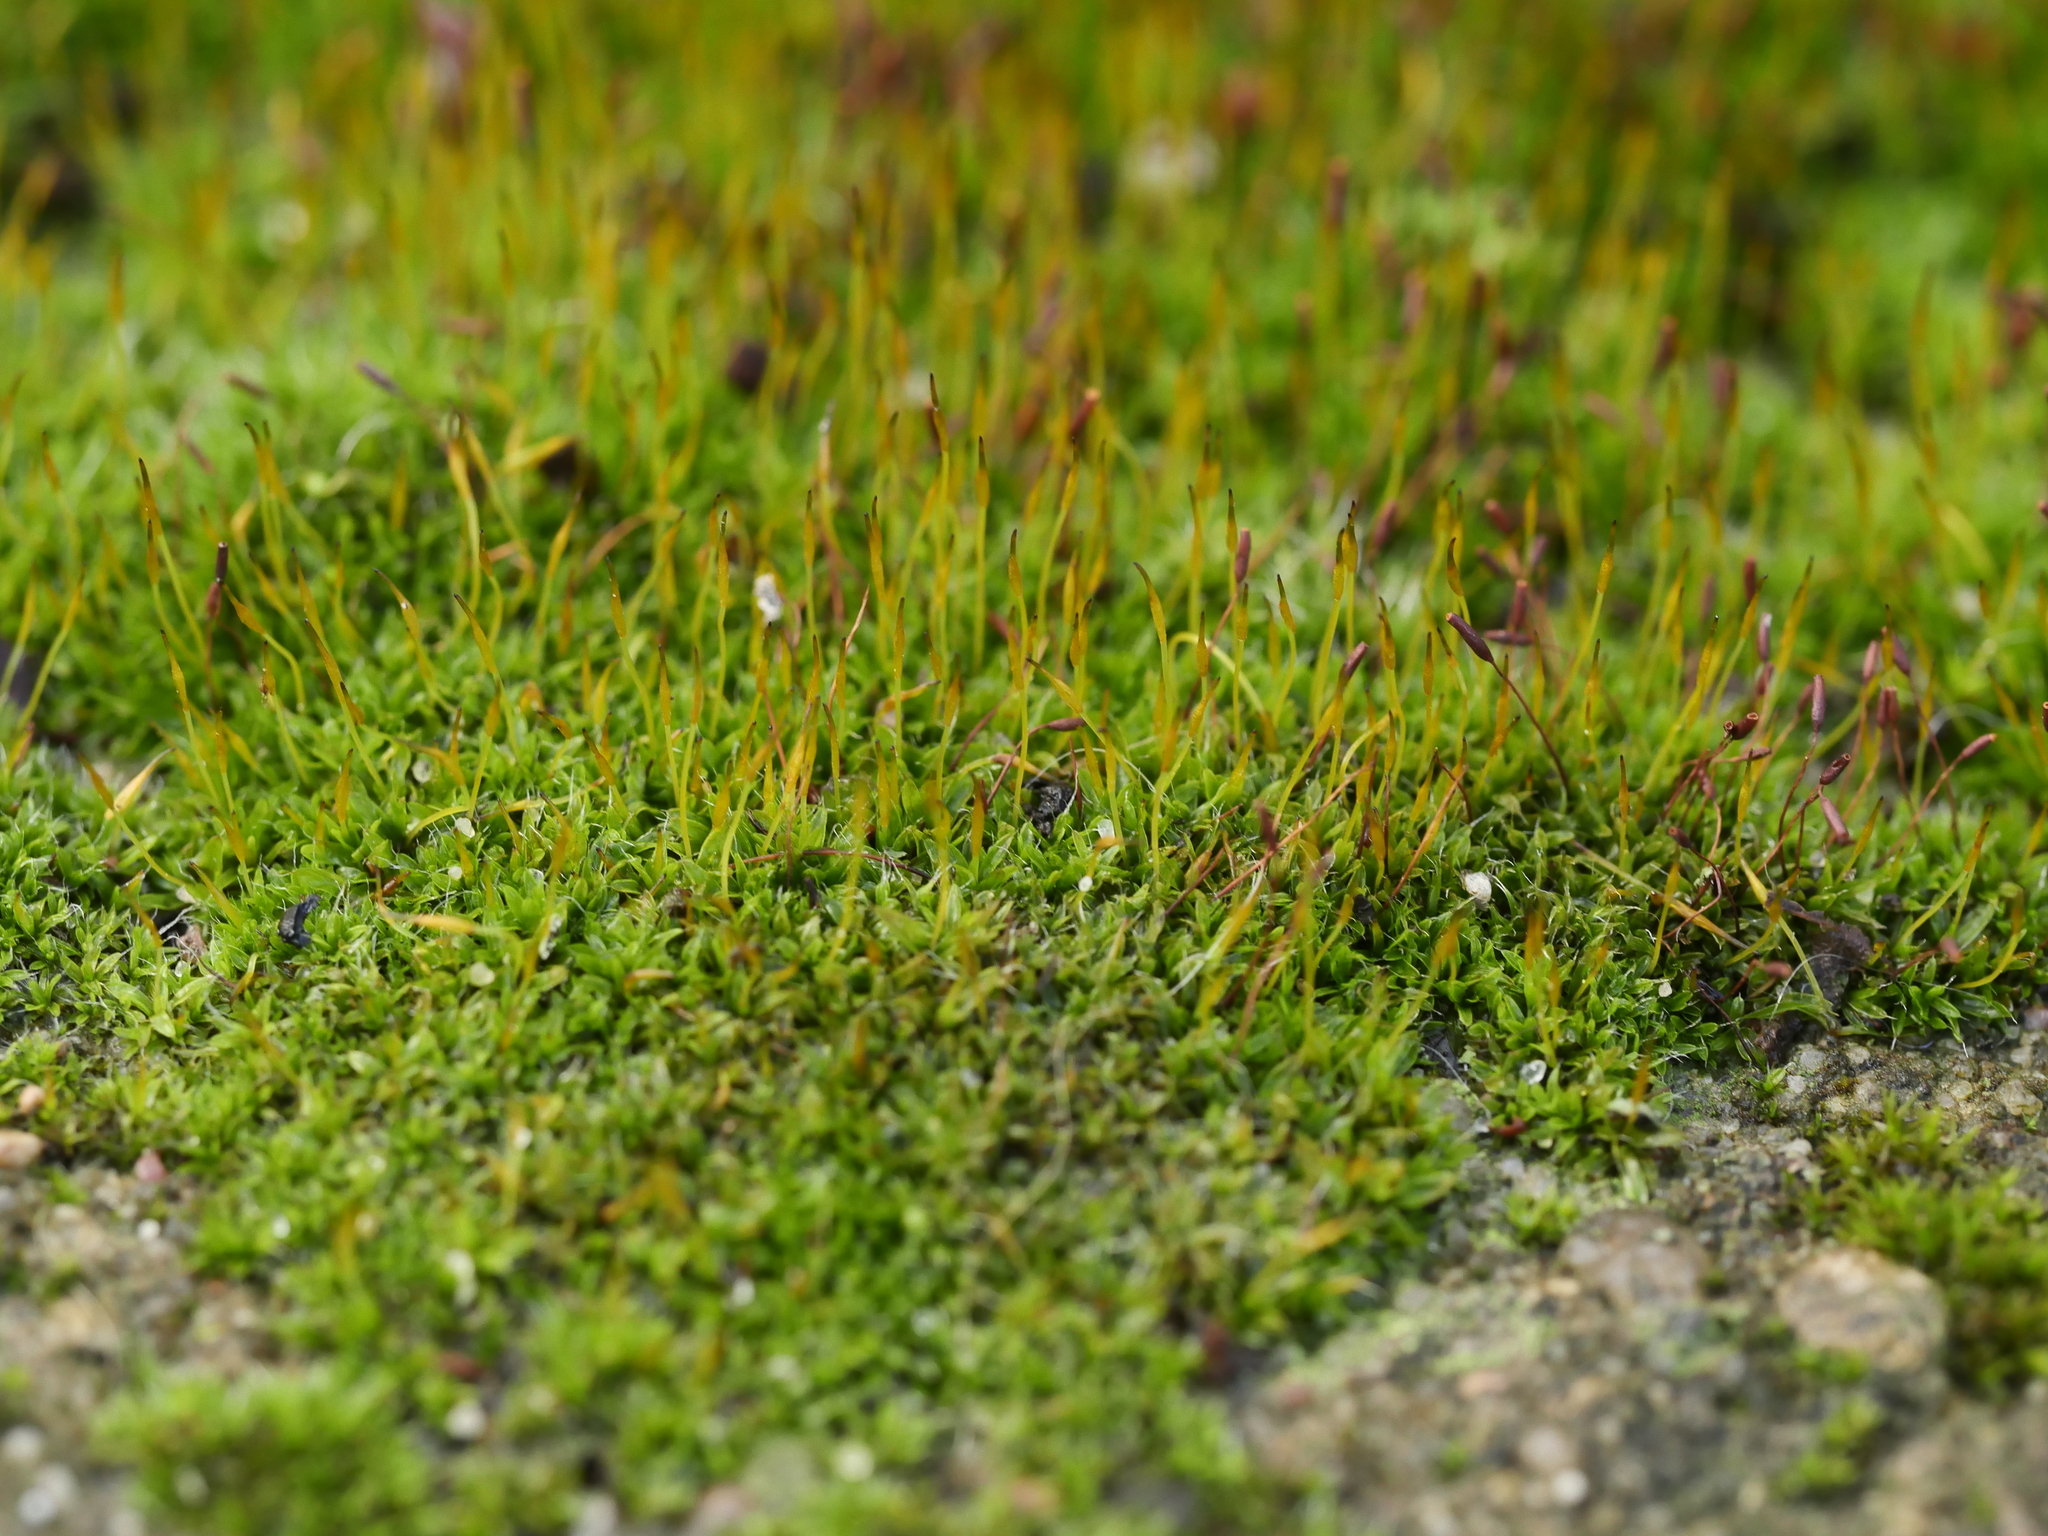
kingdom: Plantae
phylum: Bryophyta
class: Bryopsida
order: Pottiales
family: Pottiaceae
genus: Tortula
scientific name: Tortula muralis
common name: Wall screw-moss
